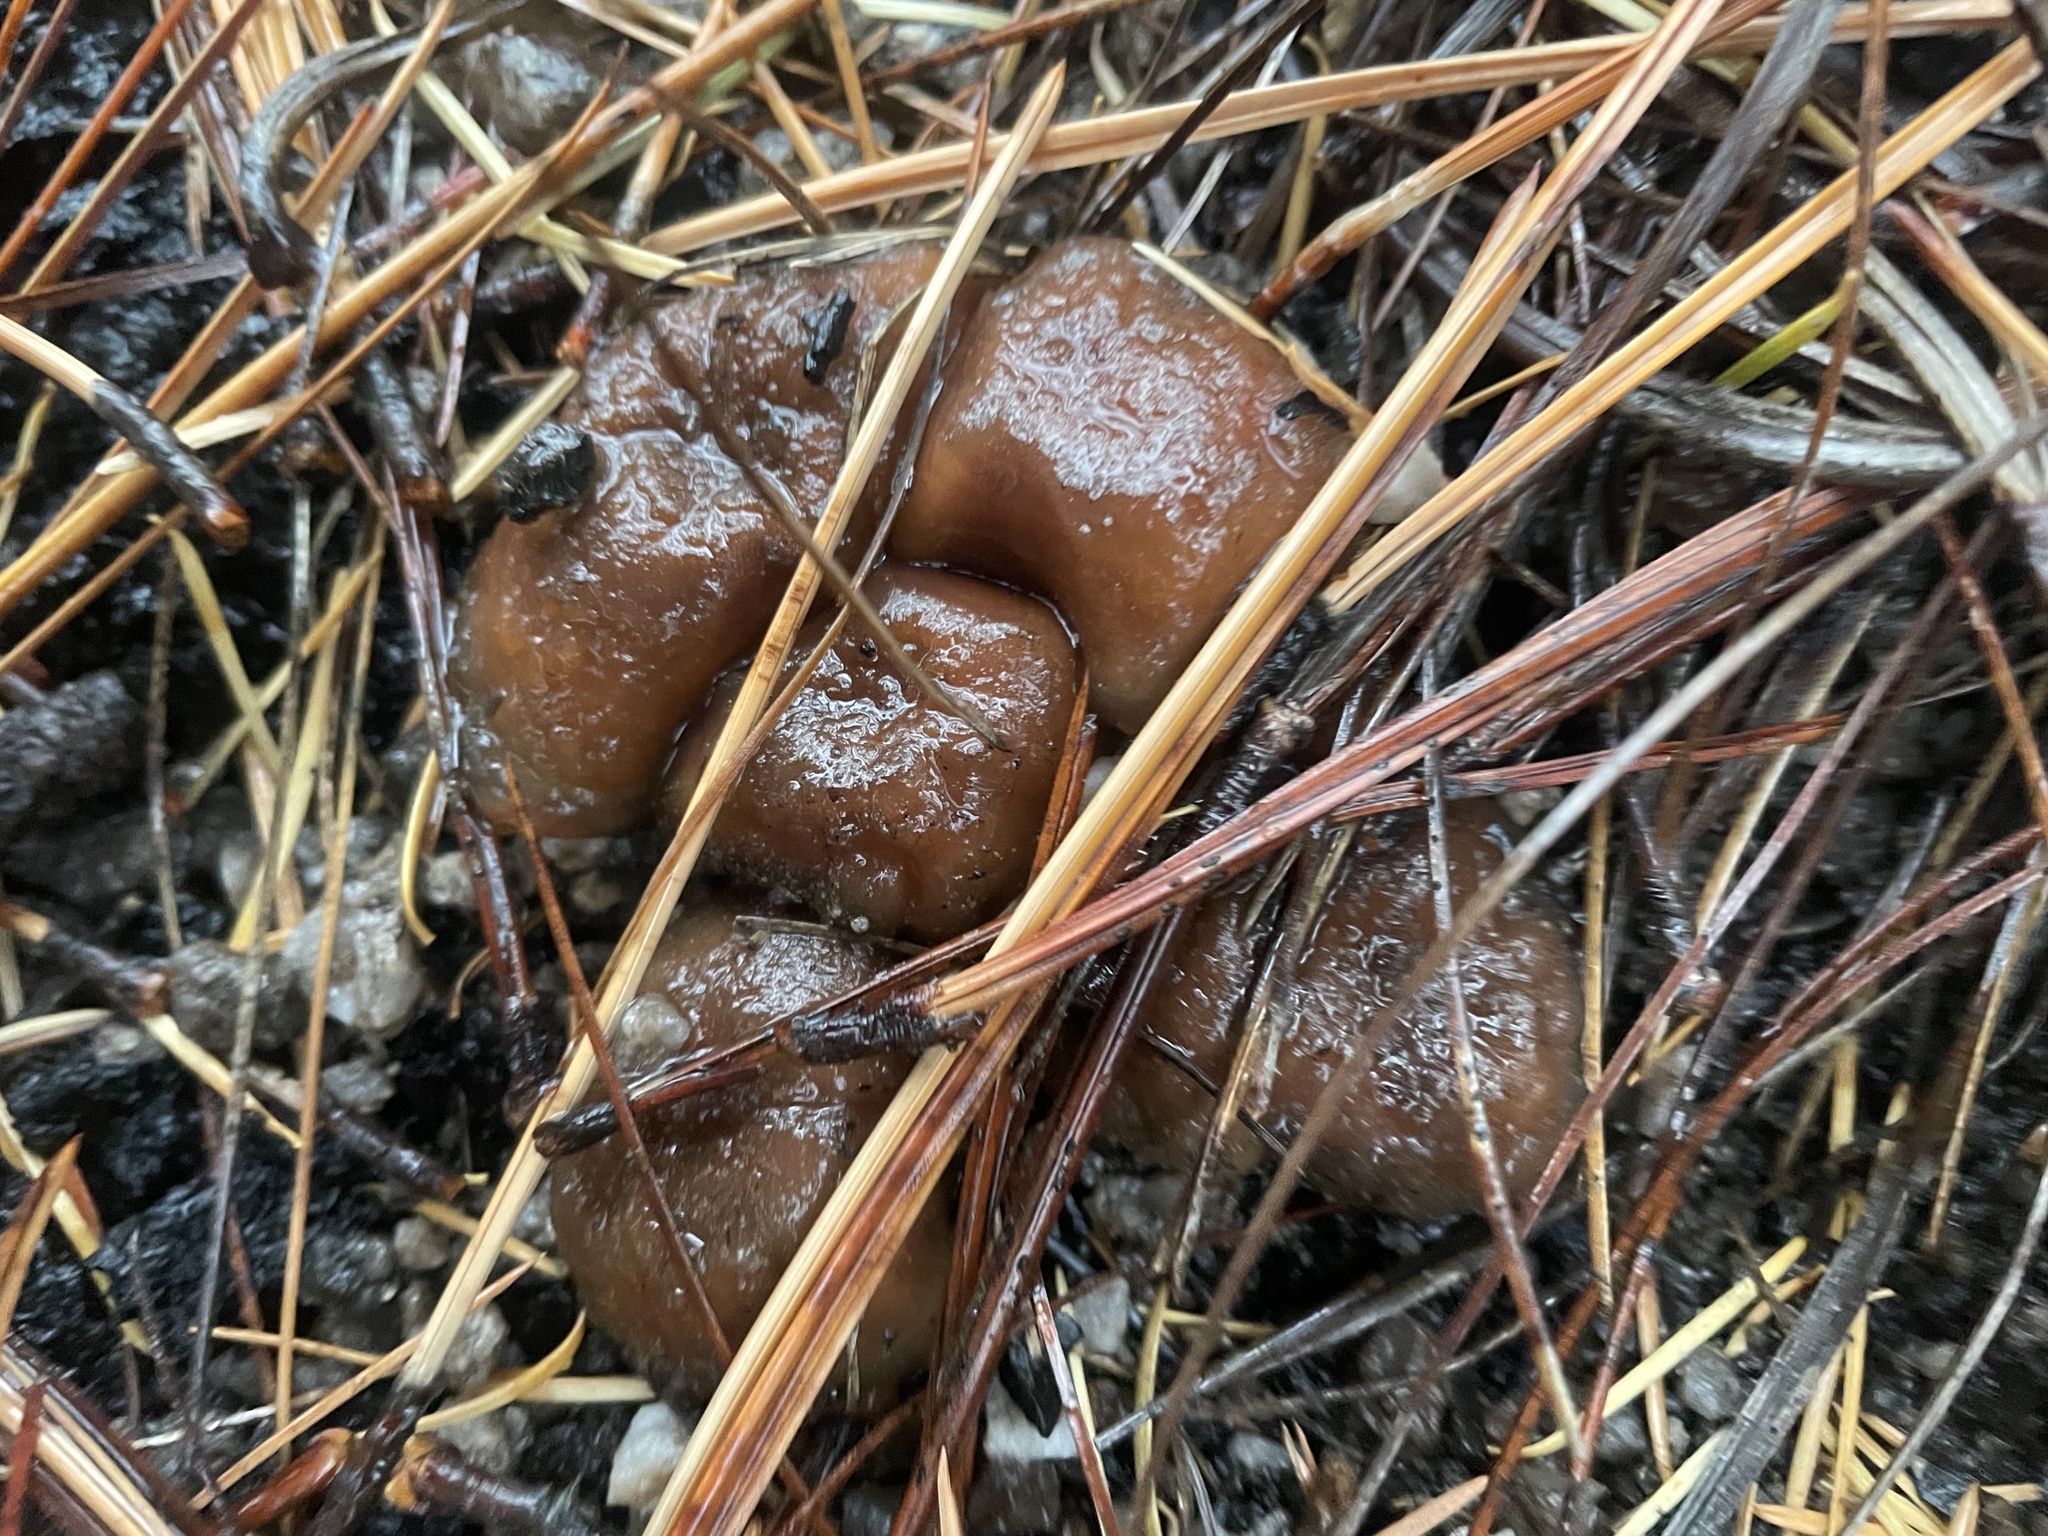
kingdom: Fungi
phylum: Basidiomycota
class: Agaricomycetes
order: Agaricales
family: Strophariaceae
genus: Pholiota
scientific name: Pholiota brunnescens
